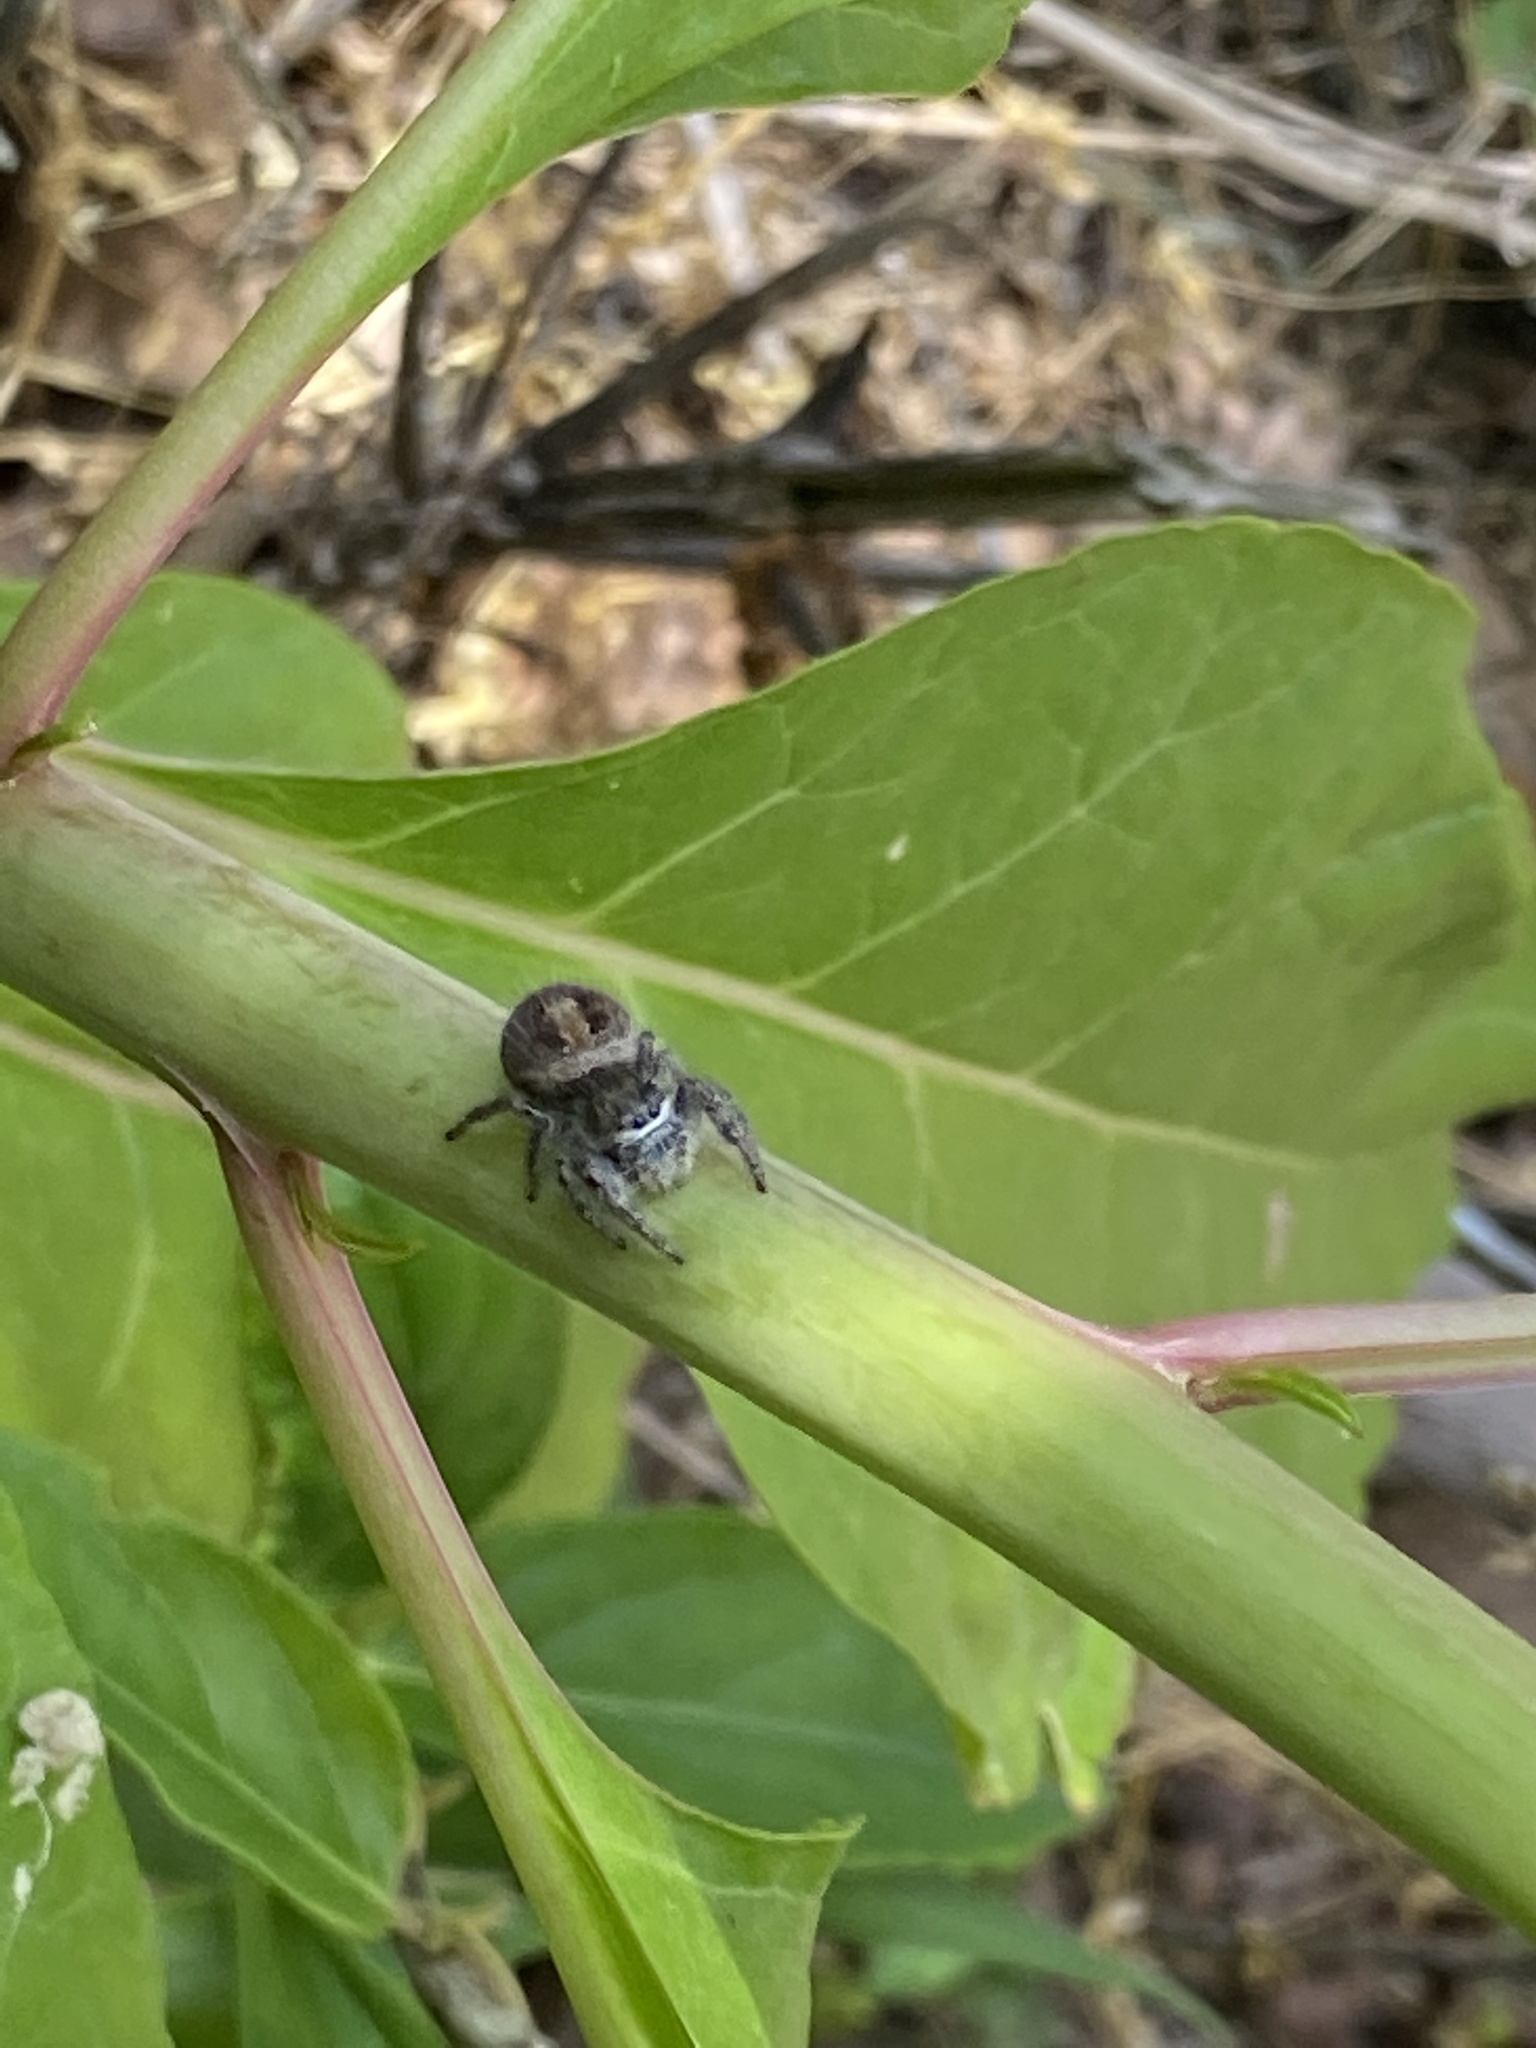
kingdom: Animalia
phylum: Arthropoda
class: Arachnida
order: Araneae
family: Salticidae
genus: Phidippus
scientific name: Phidippus princeps
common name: Grayish jumping spider
